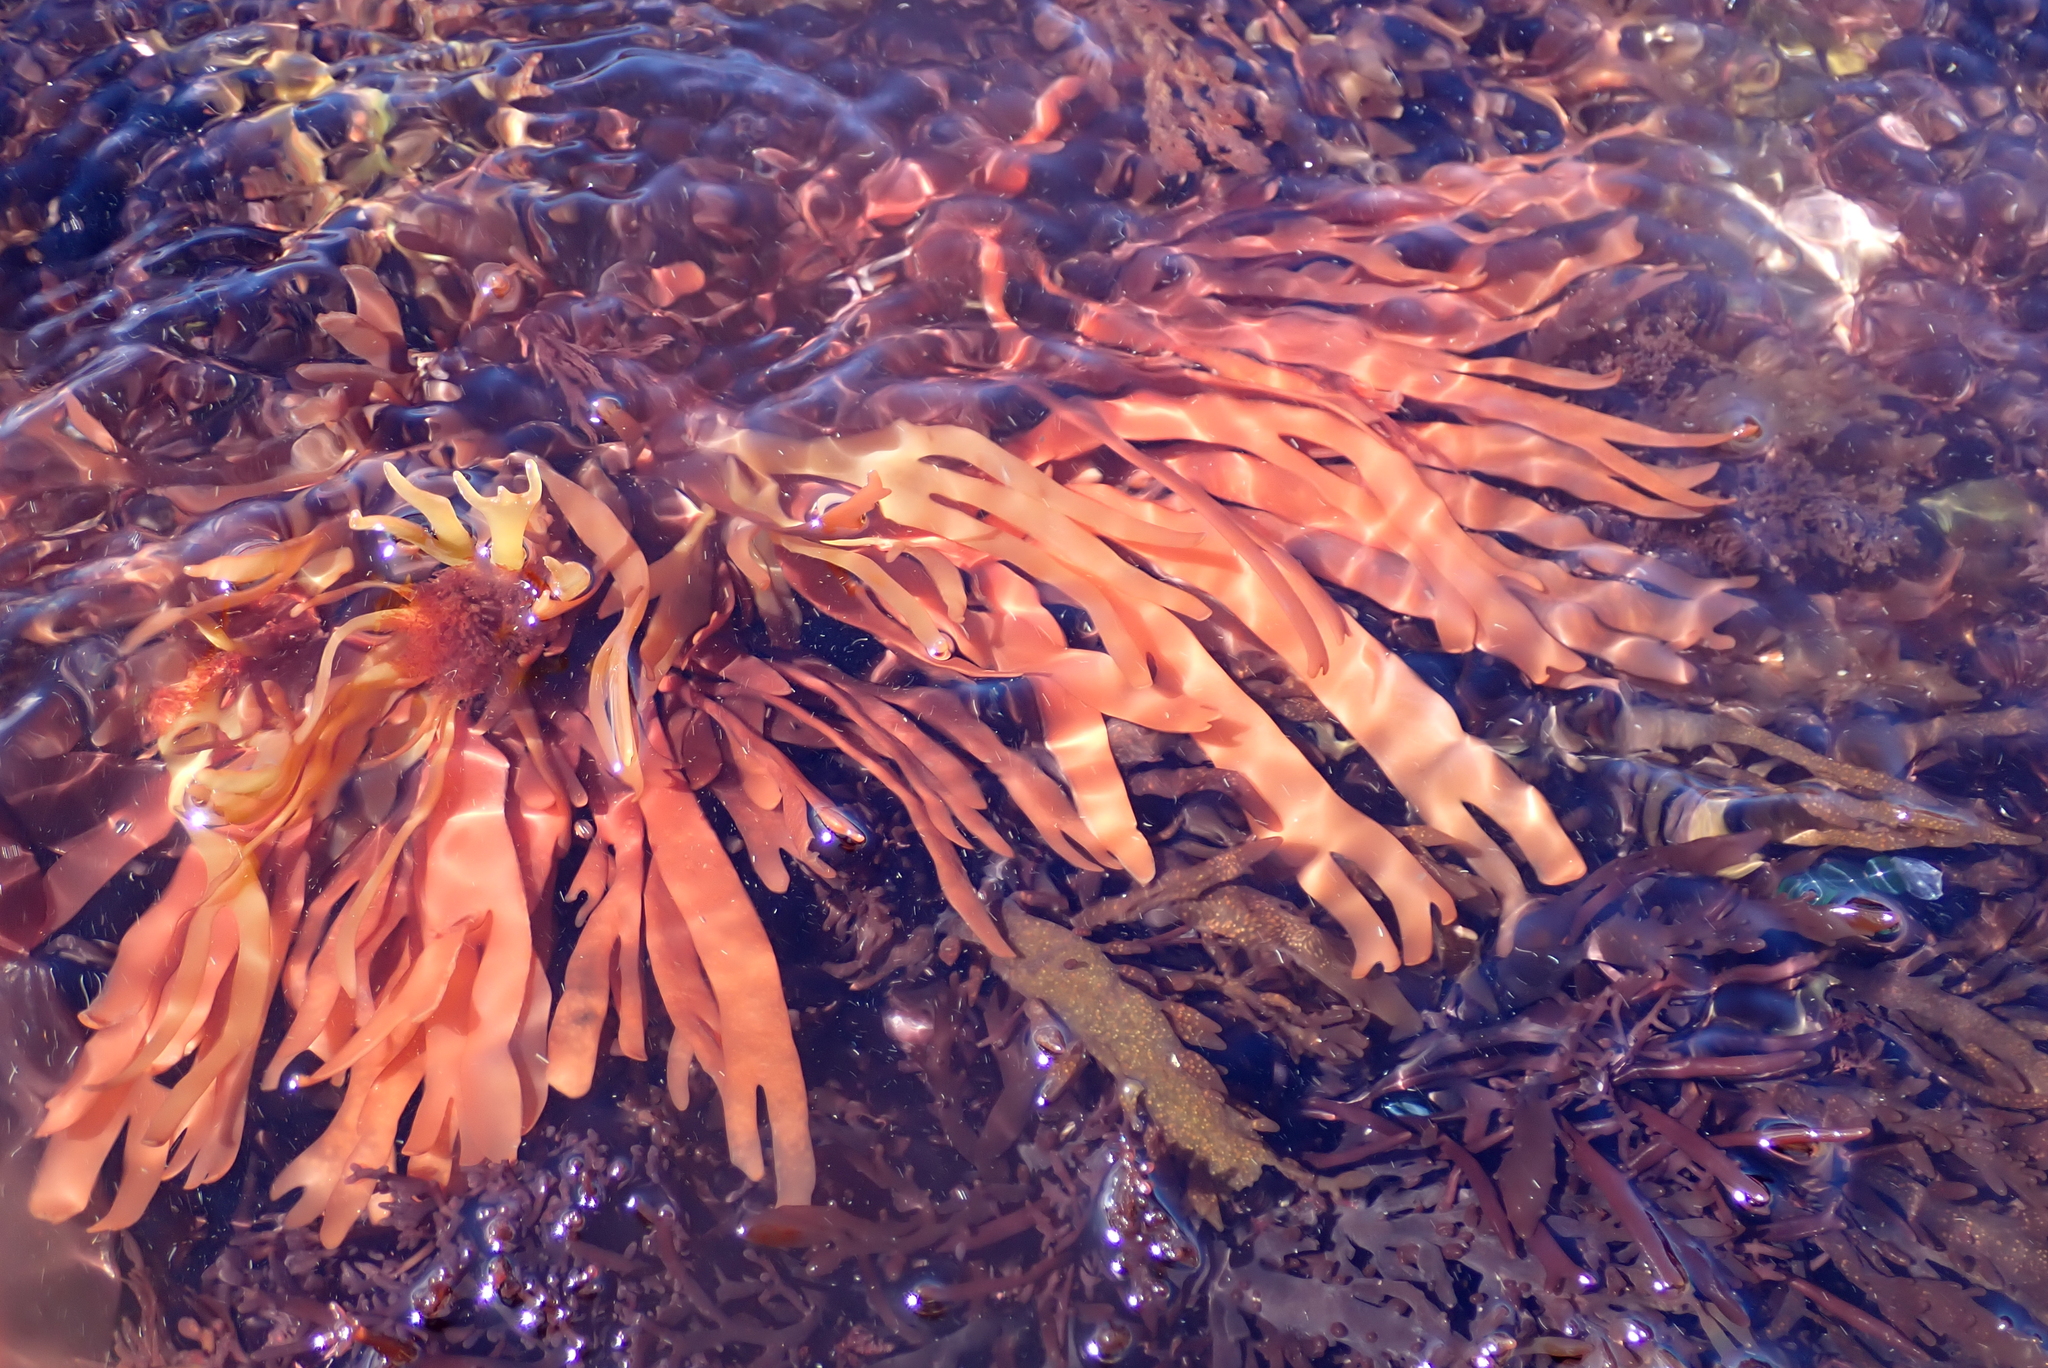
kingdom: Plantae
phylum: Rhodophyta
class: Florideophyceae
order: Gracilariales
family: Gracilariaceae
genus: Curdiea
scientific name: Curdiea furcata
